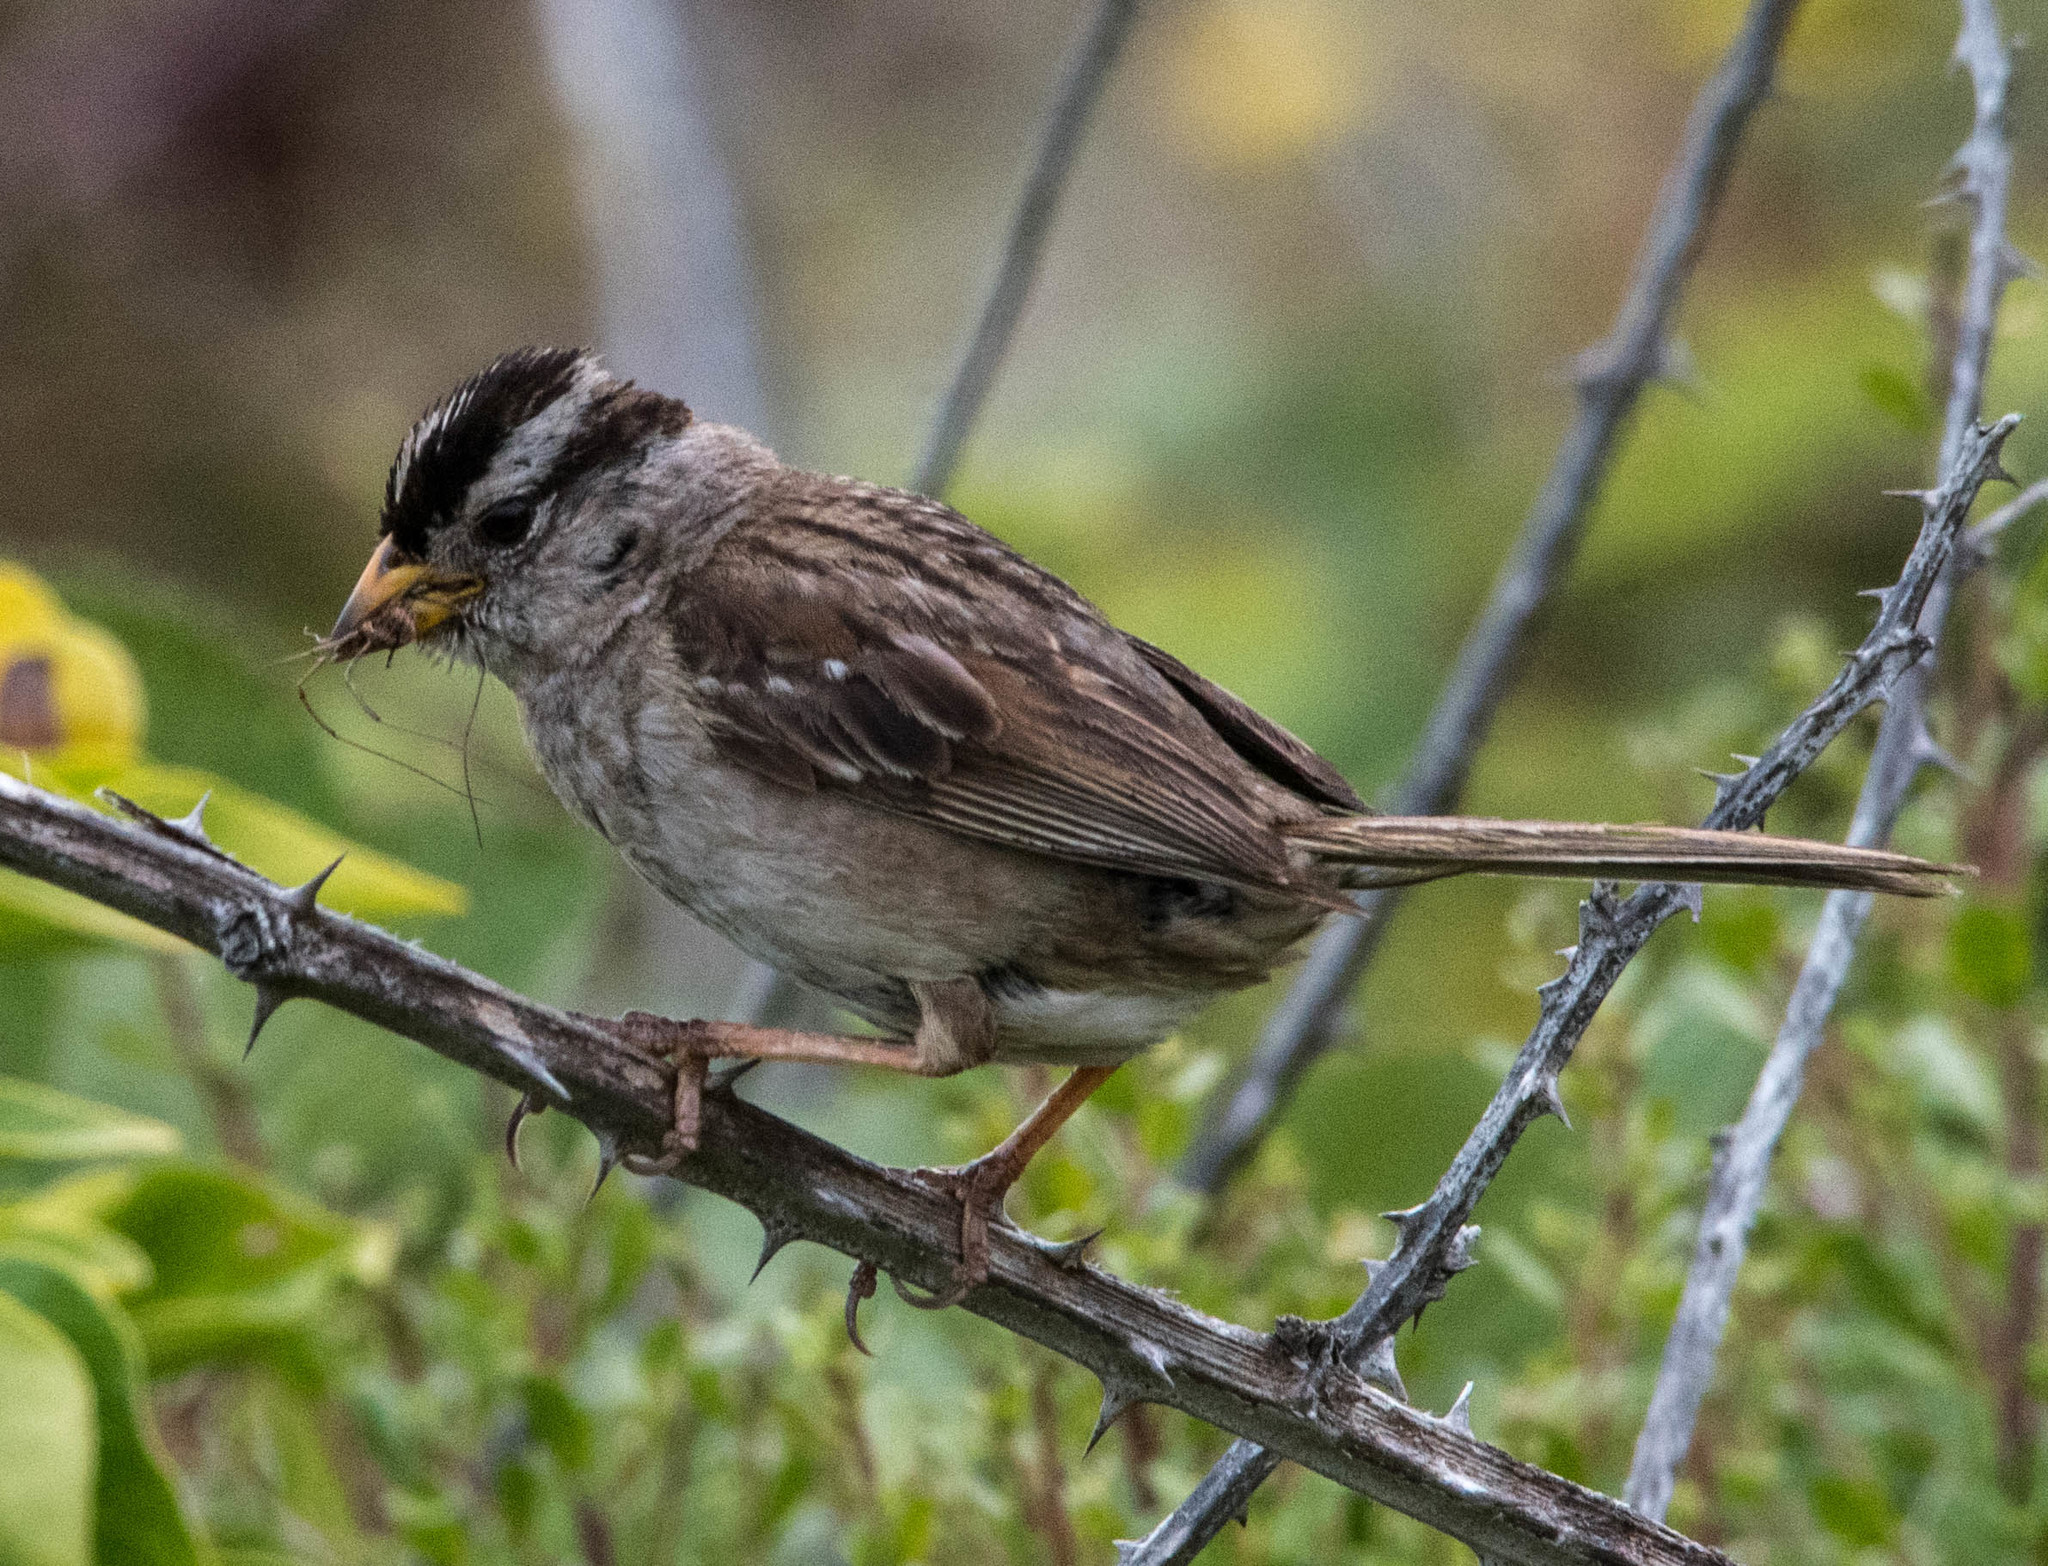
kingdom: Animalia
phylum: Chordata
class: Aves
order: Passeriformes
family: Passerellidae
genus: Zonotrichia
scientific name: Zonotrichia leucophrys
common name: White-crowned sparrow
